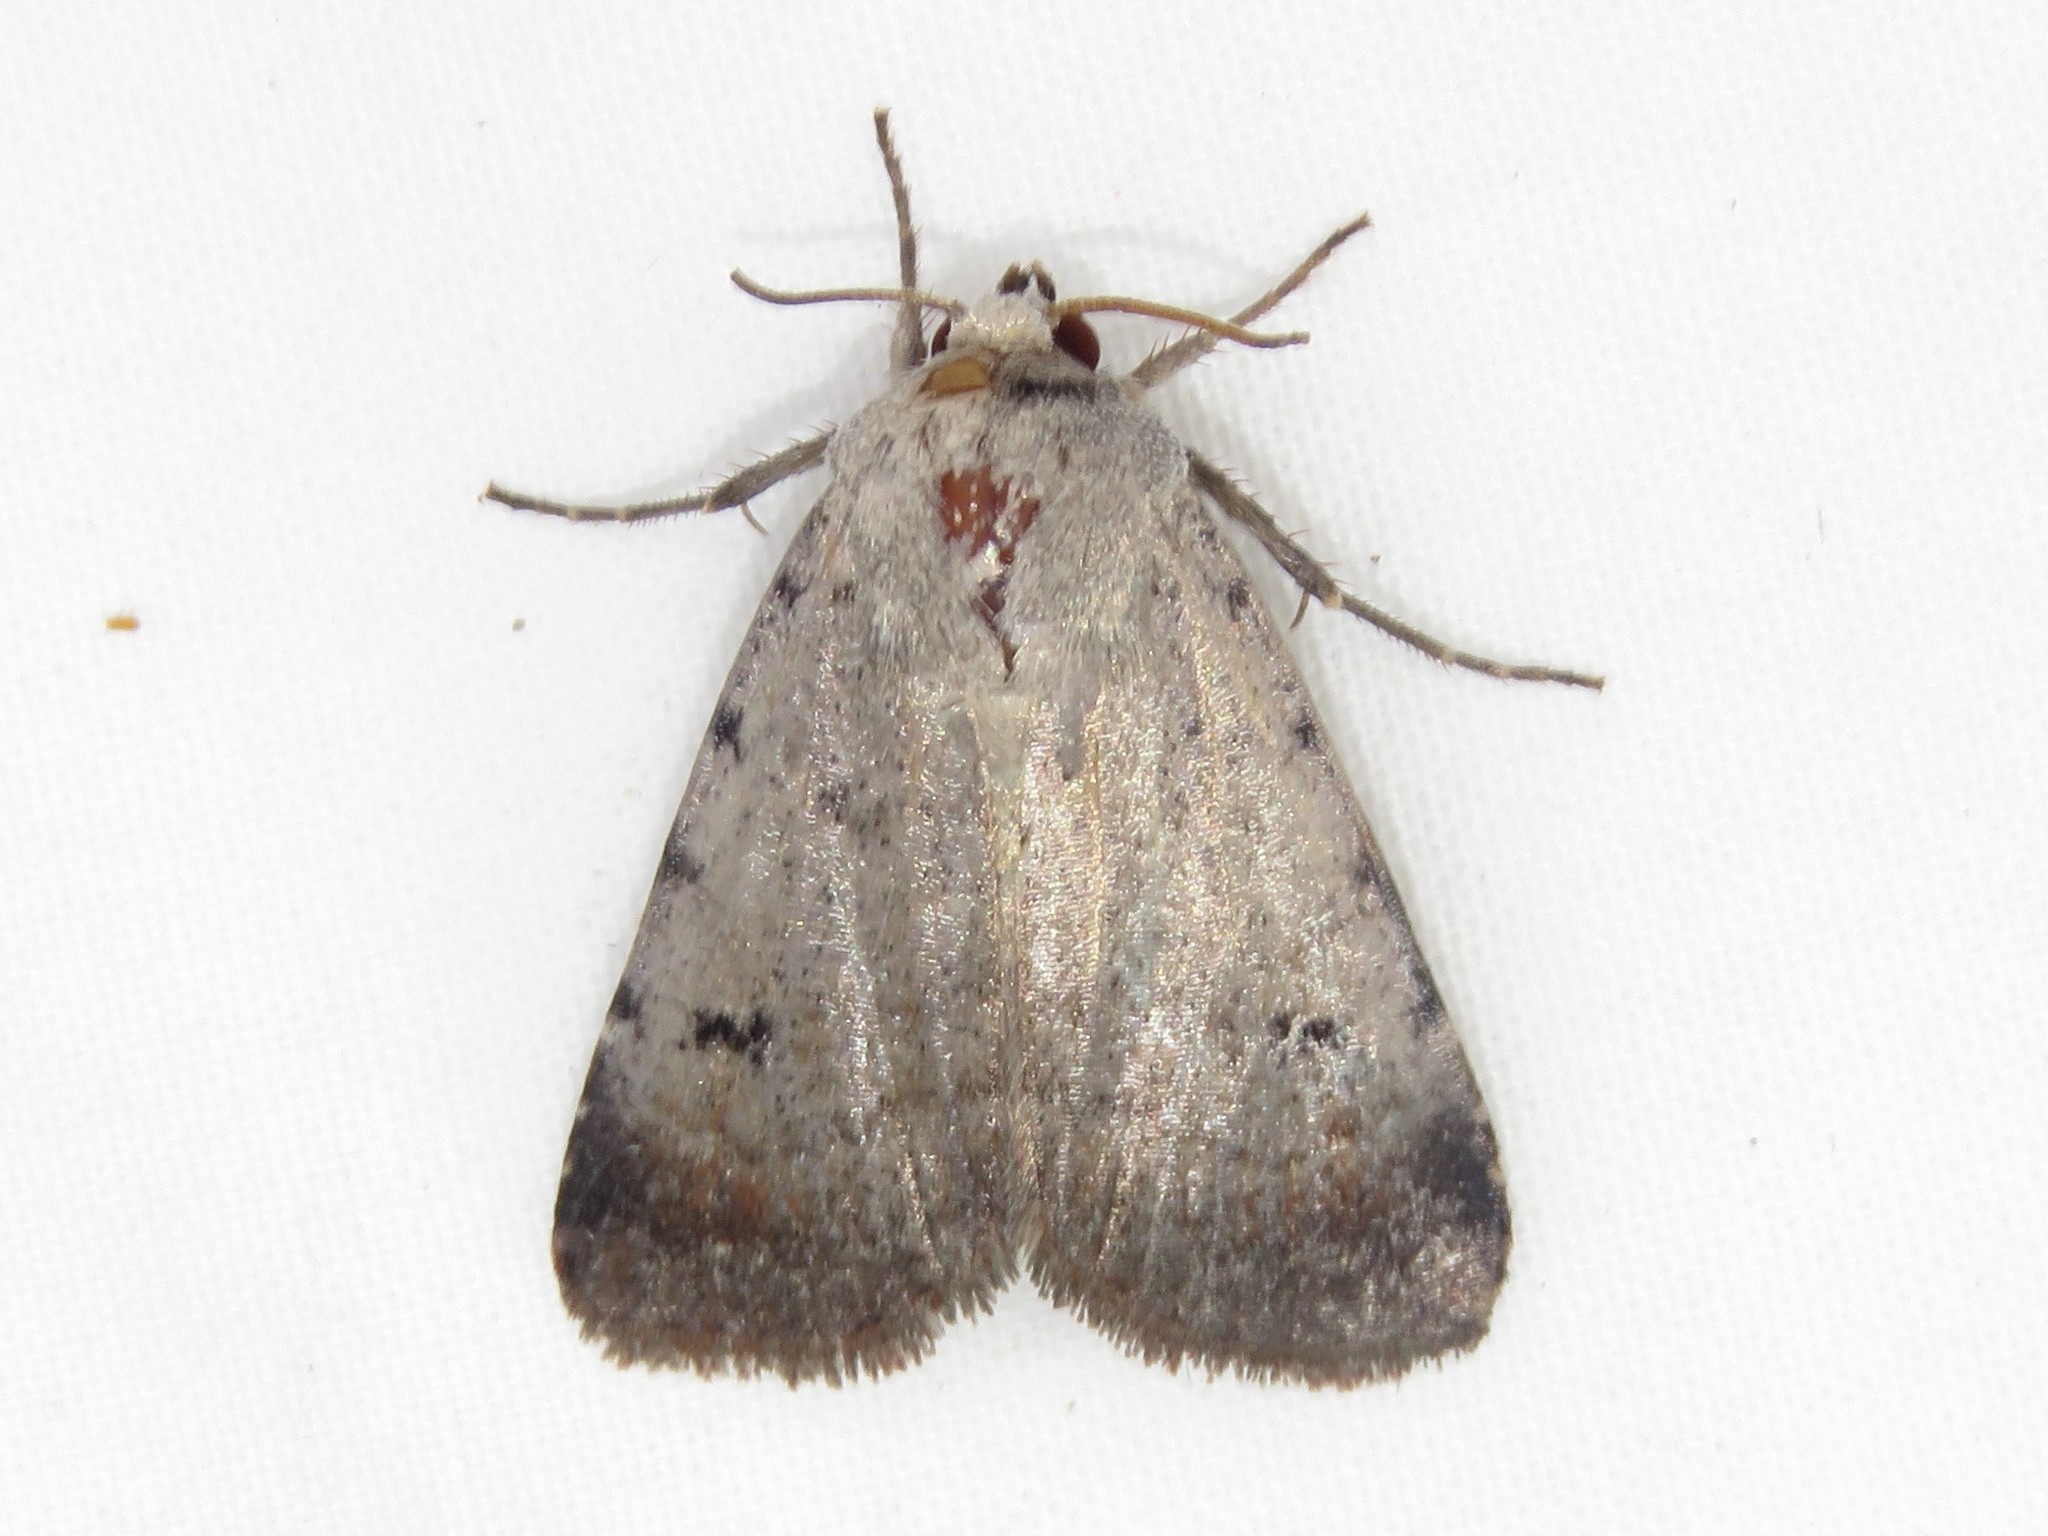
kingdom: Animalia
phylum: Arthropoda
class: Insecta
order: Lepidoptera
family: Noctuidae
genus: Anicla
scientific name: Anicla illapsa
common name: Snowy dart
